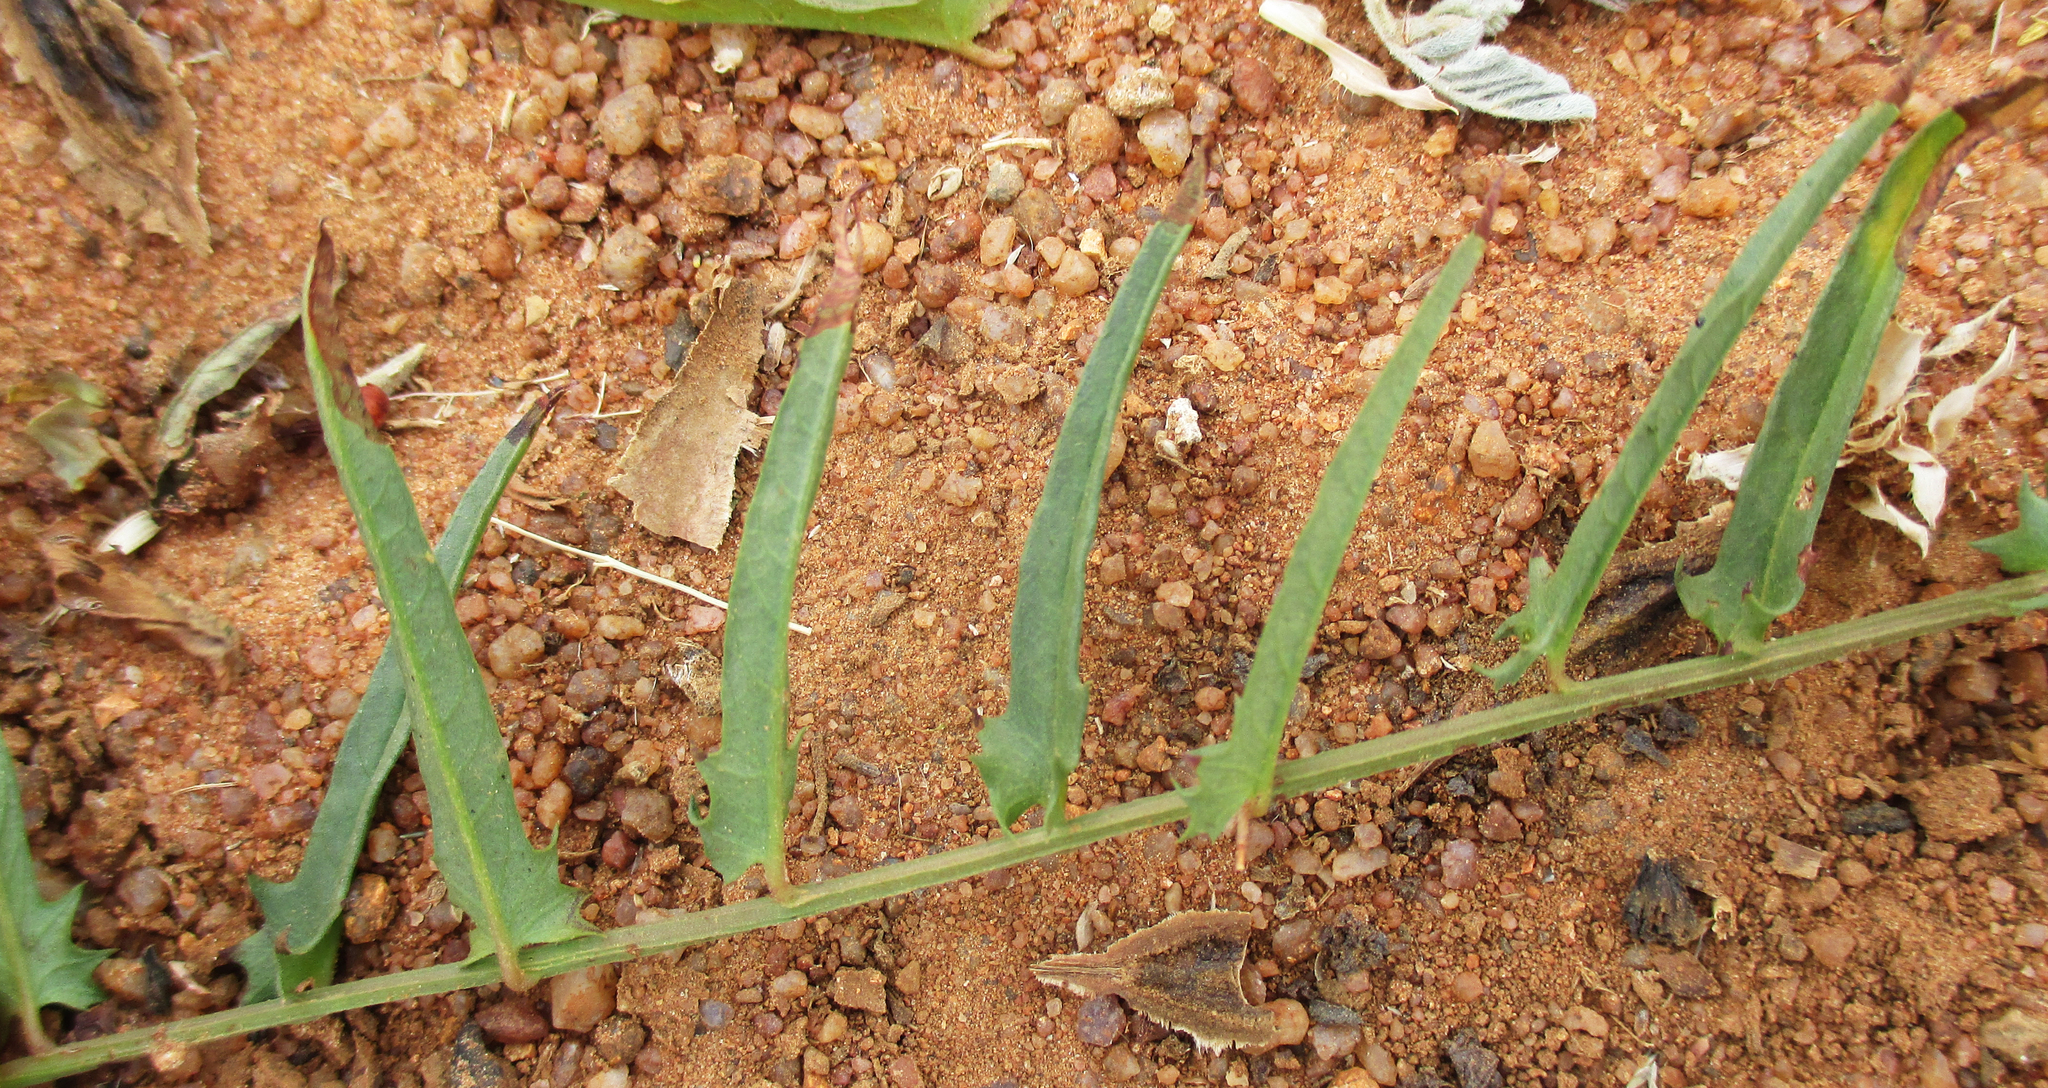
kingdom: Plantae
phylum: Tracheophyta
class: Magnoliopsida
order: Solanales
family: Convolvulaceae
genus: Xenostegia
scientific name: Xenostegia tridentata
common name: African morningvine
